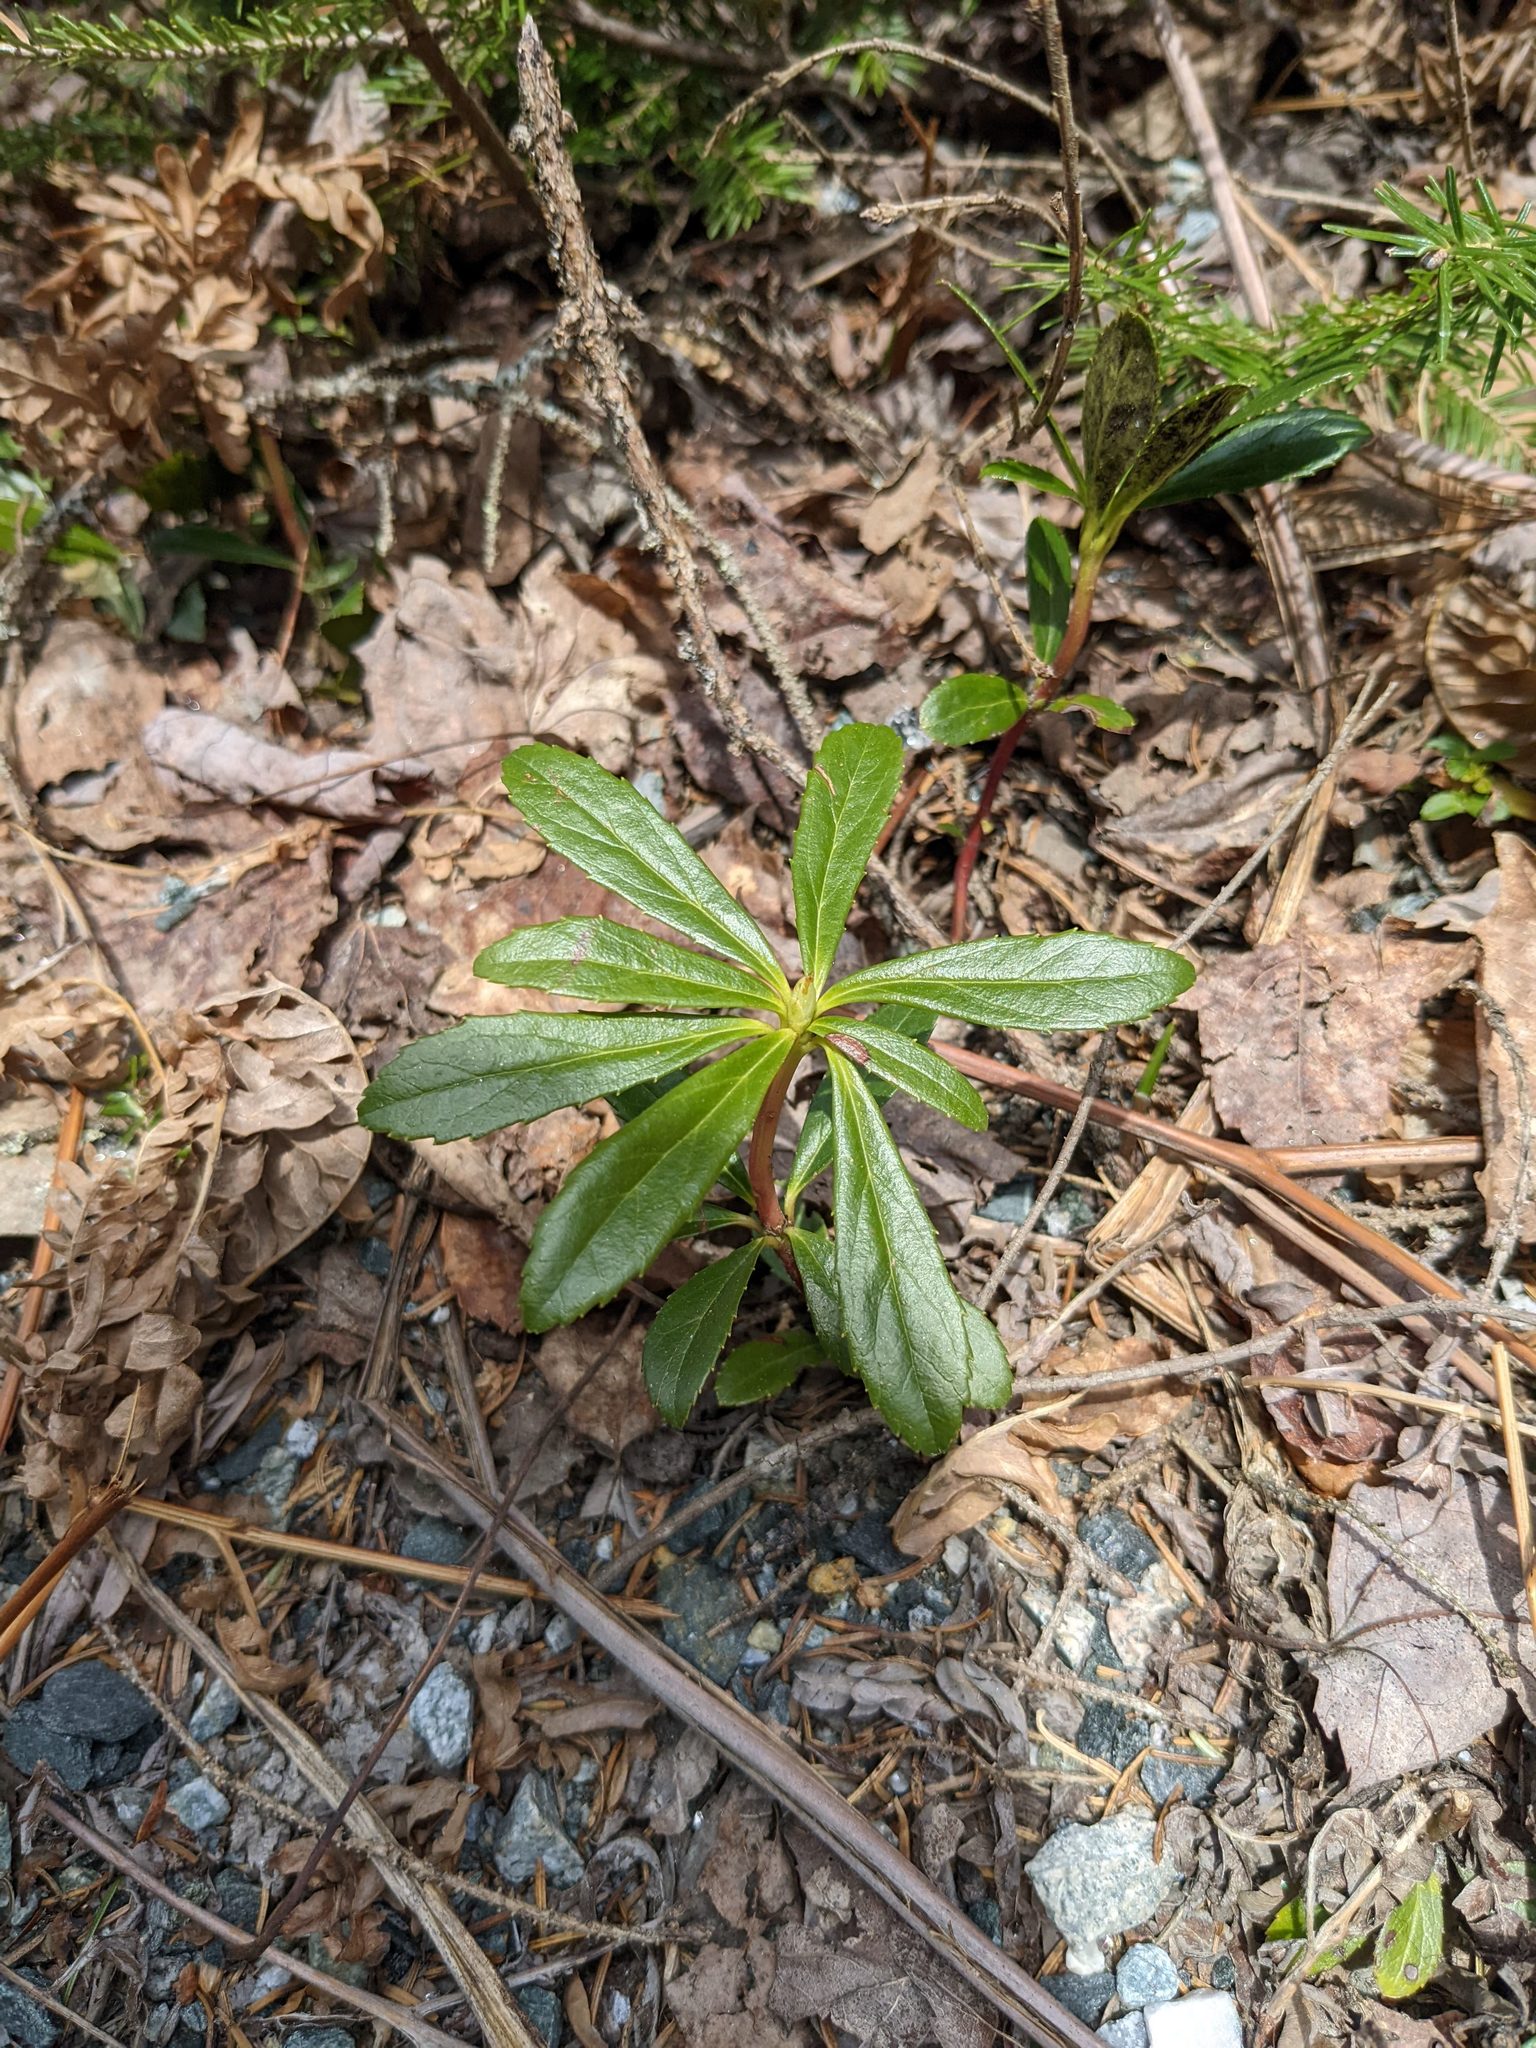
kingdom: Plantae
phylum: Tracheophyta
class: Magnoliopsida
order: Ericales
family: Ericaceae
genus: Chimaphila
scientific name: Chimaphila umbellata
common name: Pipsissewa
